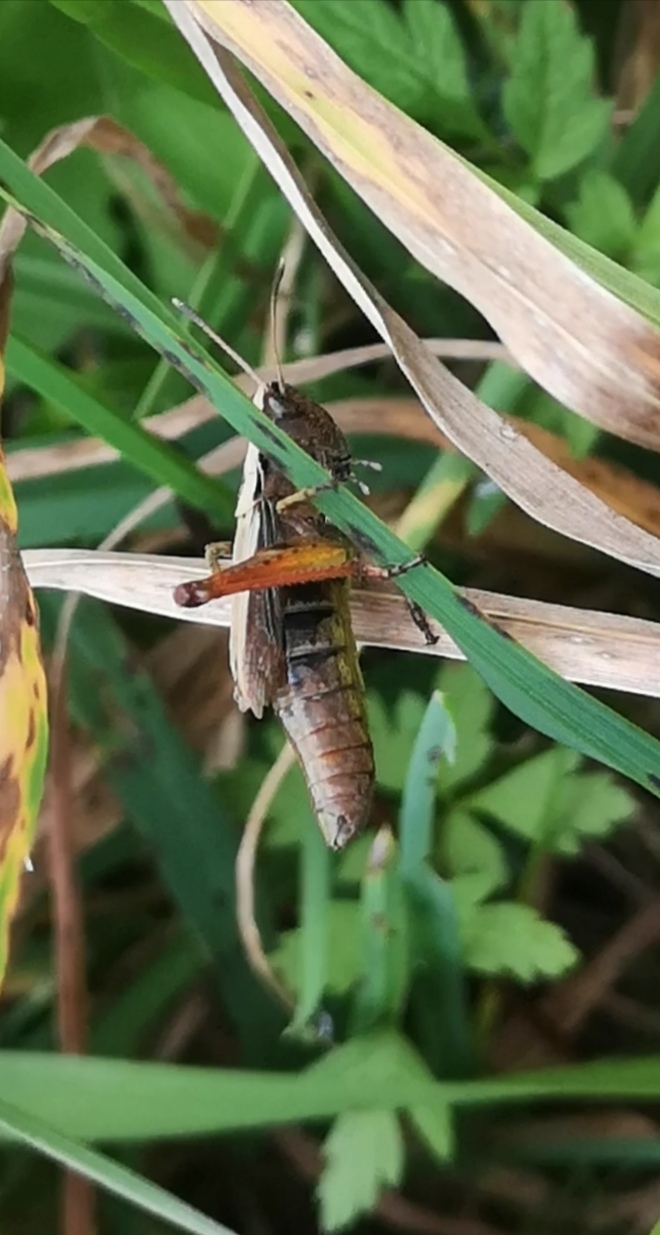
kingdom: Animalia
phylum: Arthropoda
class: Insecta
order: Orthoptera
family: Acrididae
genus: Gomphocerippus
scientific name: Gomphocerippus rufus
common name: Rufous grasshopper
